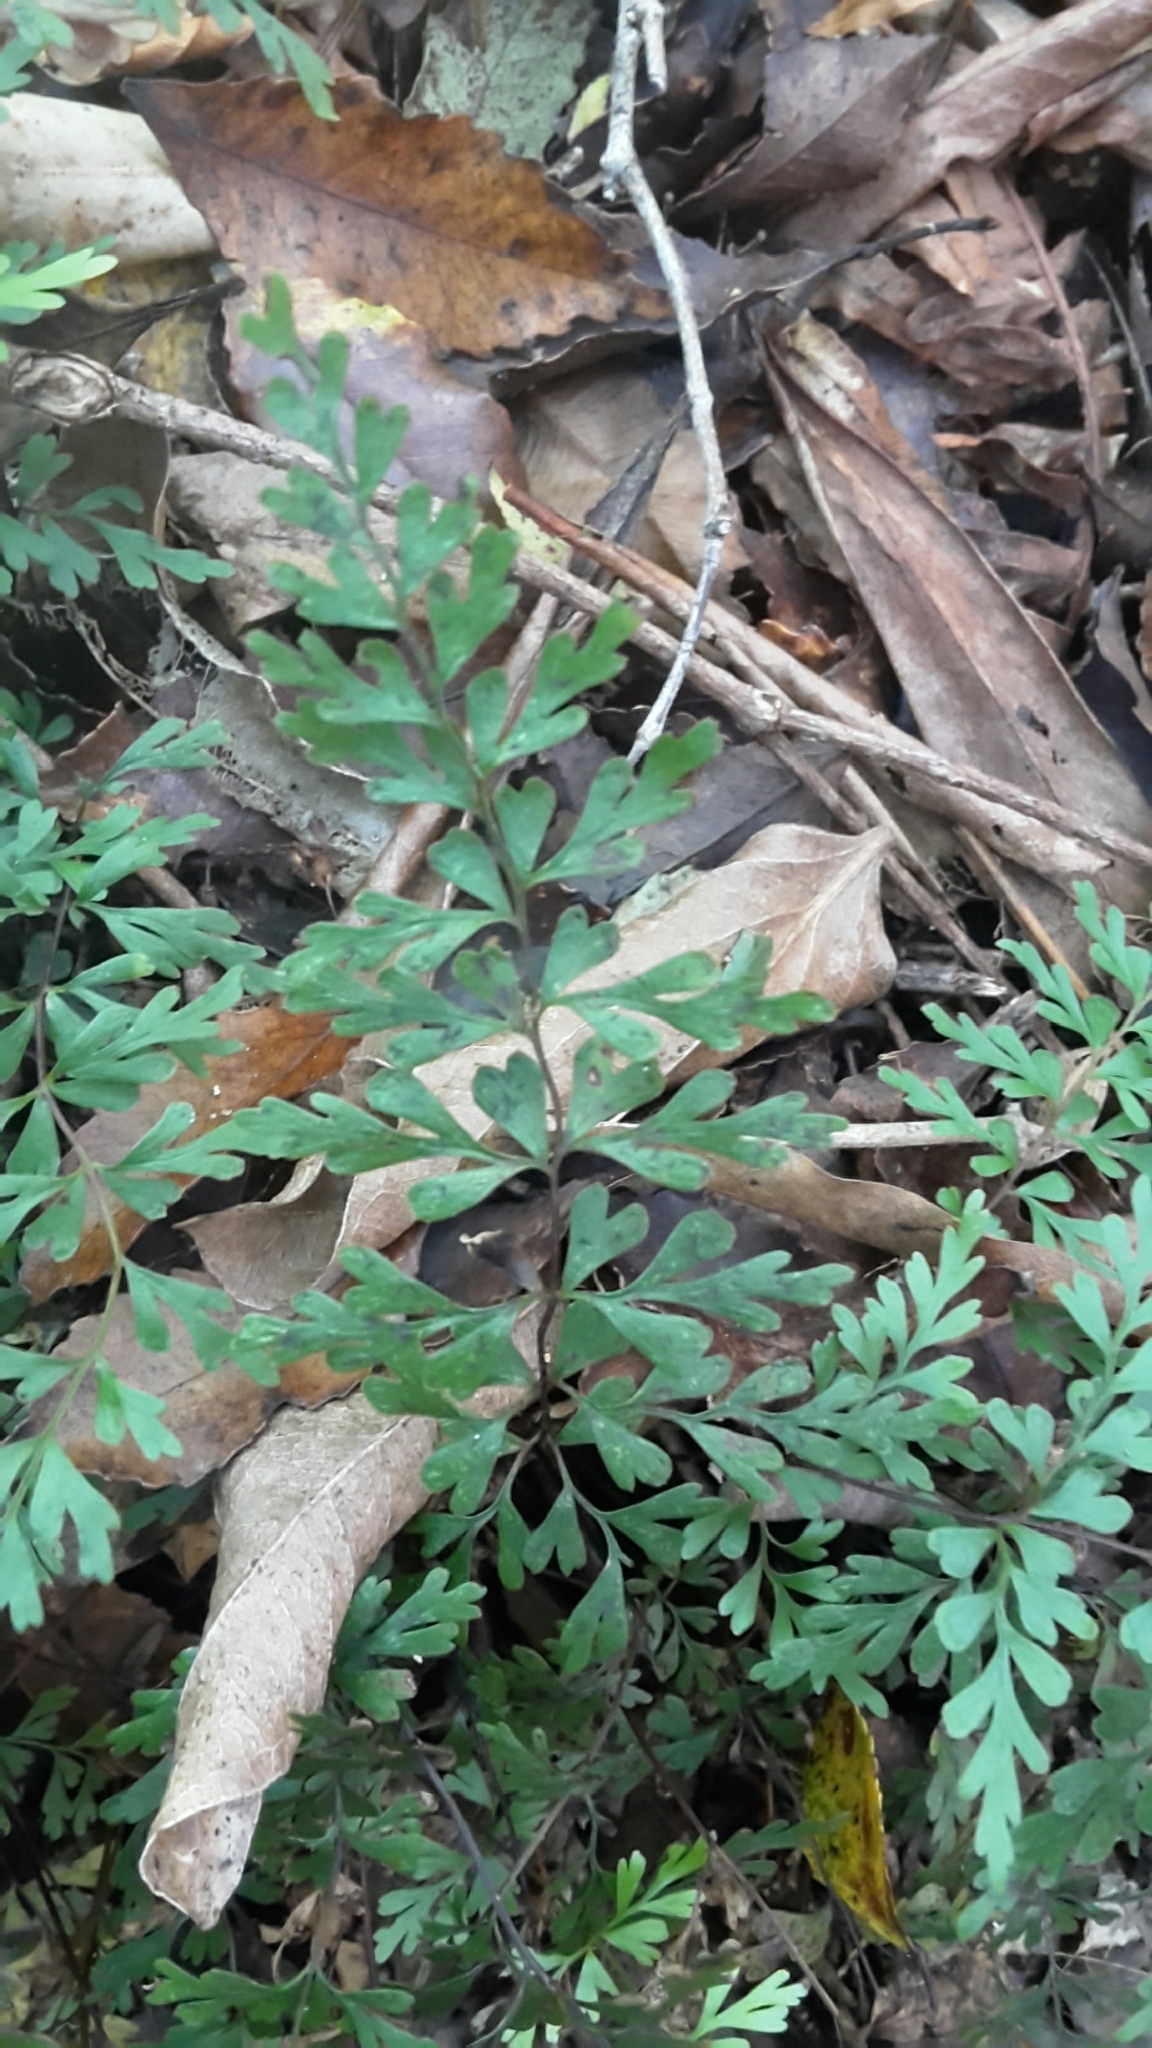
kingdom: Plantae
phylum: Tracheophyta
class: Polypodiopsida
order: Polypodiales
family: Lindsaeaceae
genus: Lindsaea
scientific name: Lindsaea trichomanoides
